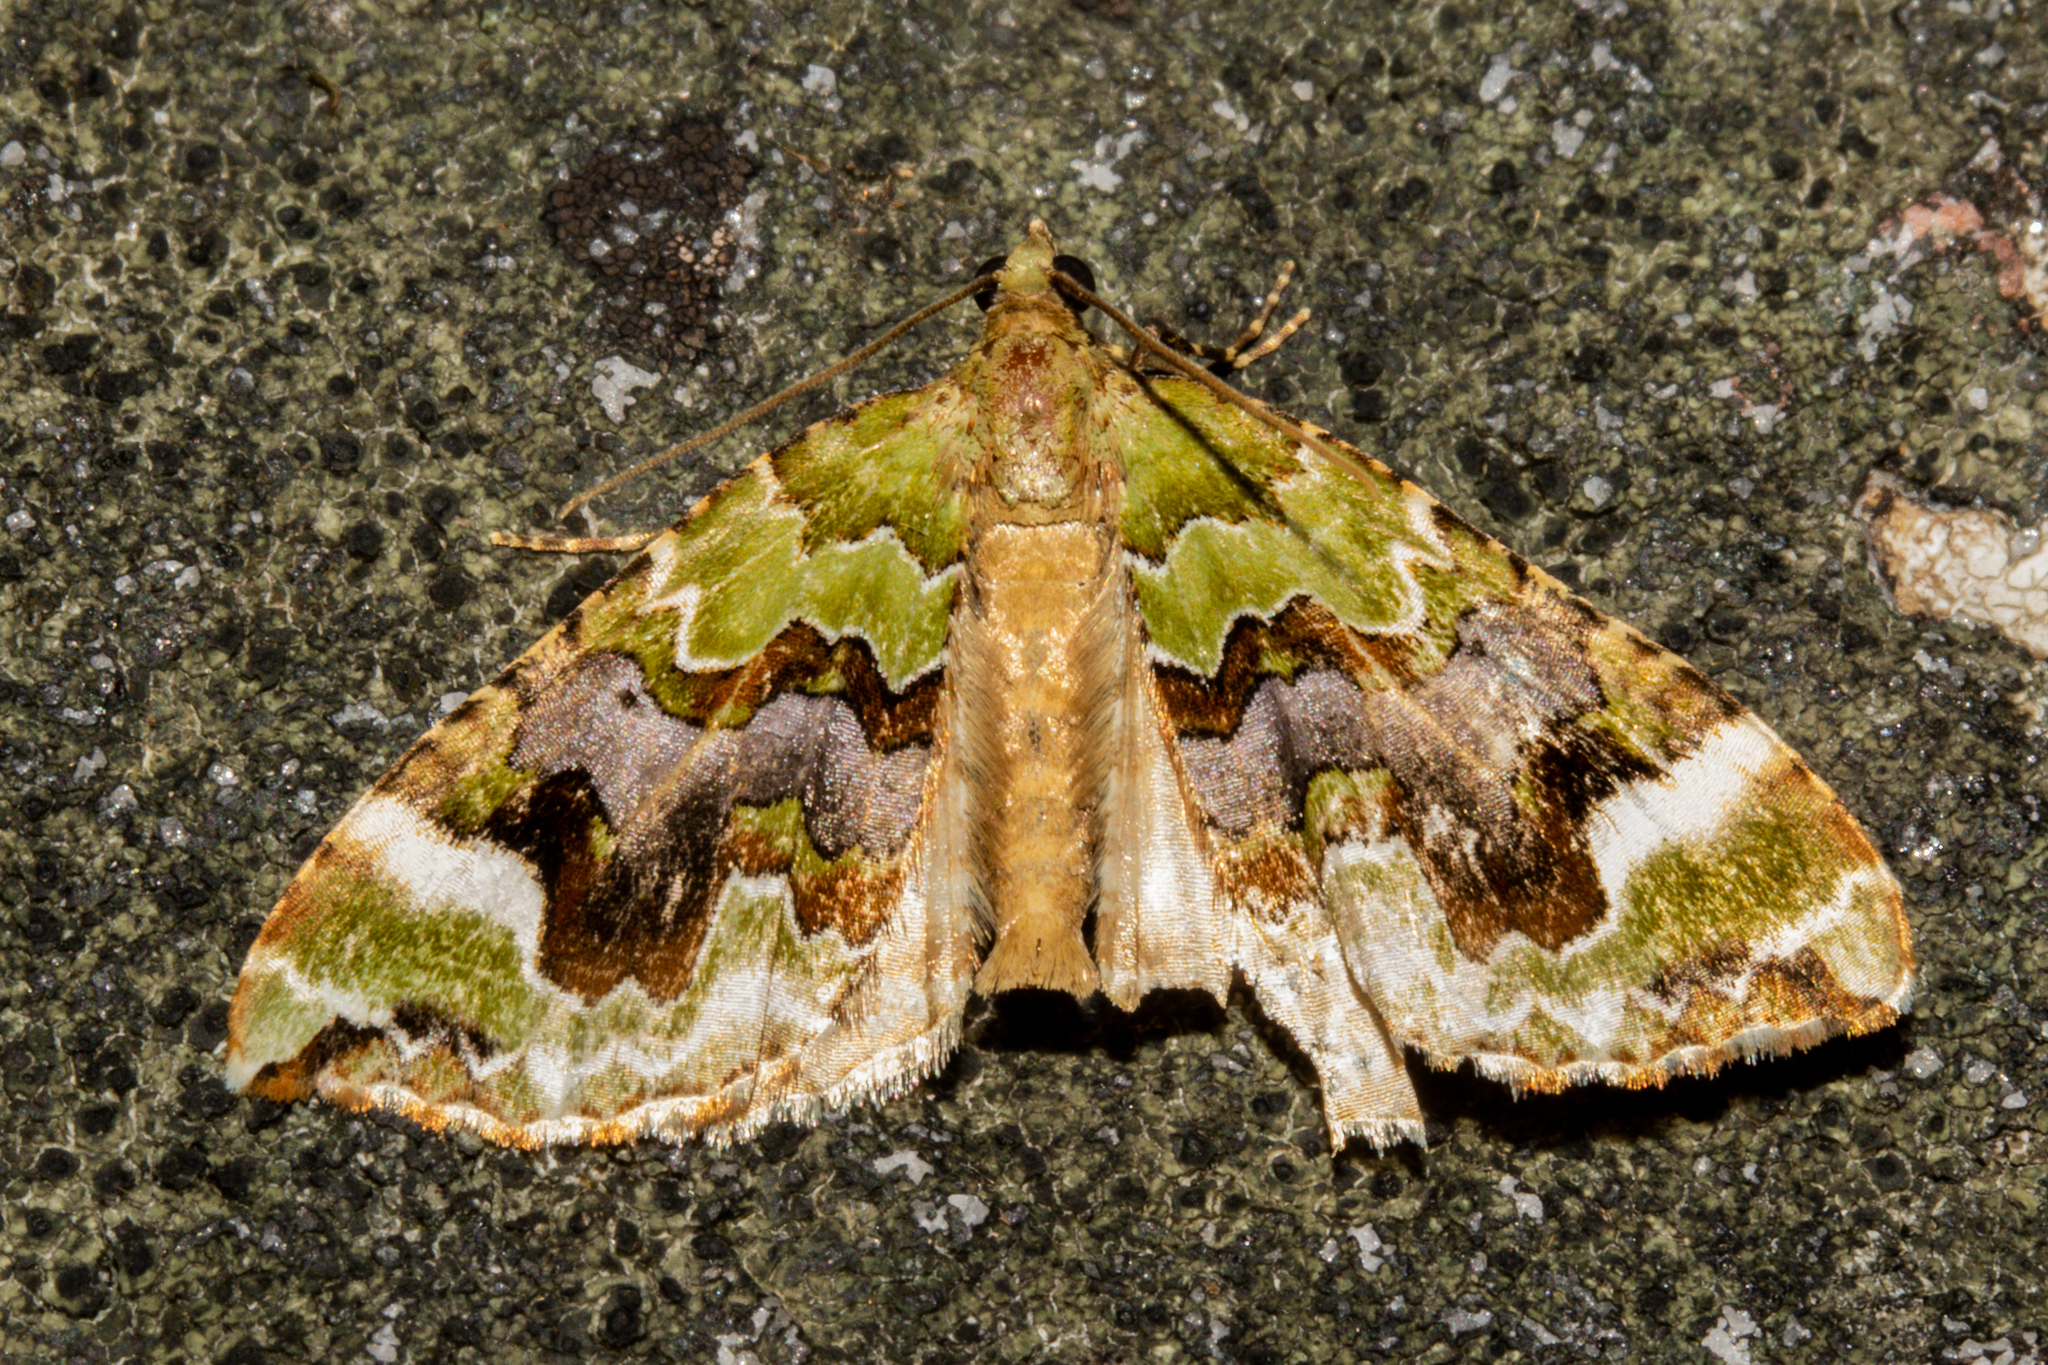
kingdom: Animalia
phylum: Arthropoda
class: Insecta
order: Lepidoptera
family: Geometridae
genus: Hydriomena
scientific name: Hydriomena purpurifera
